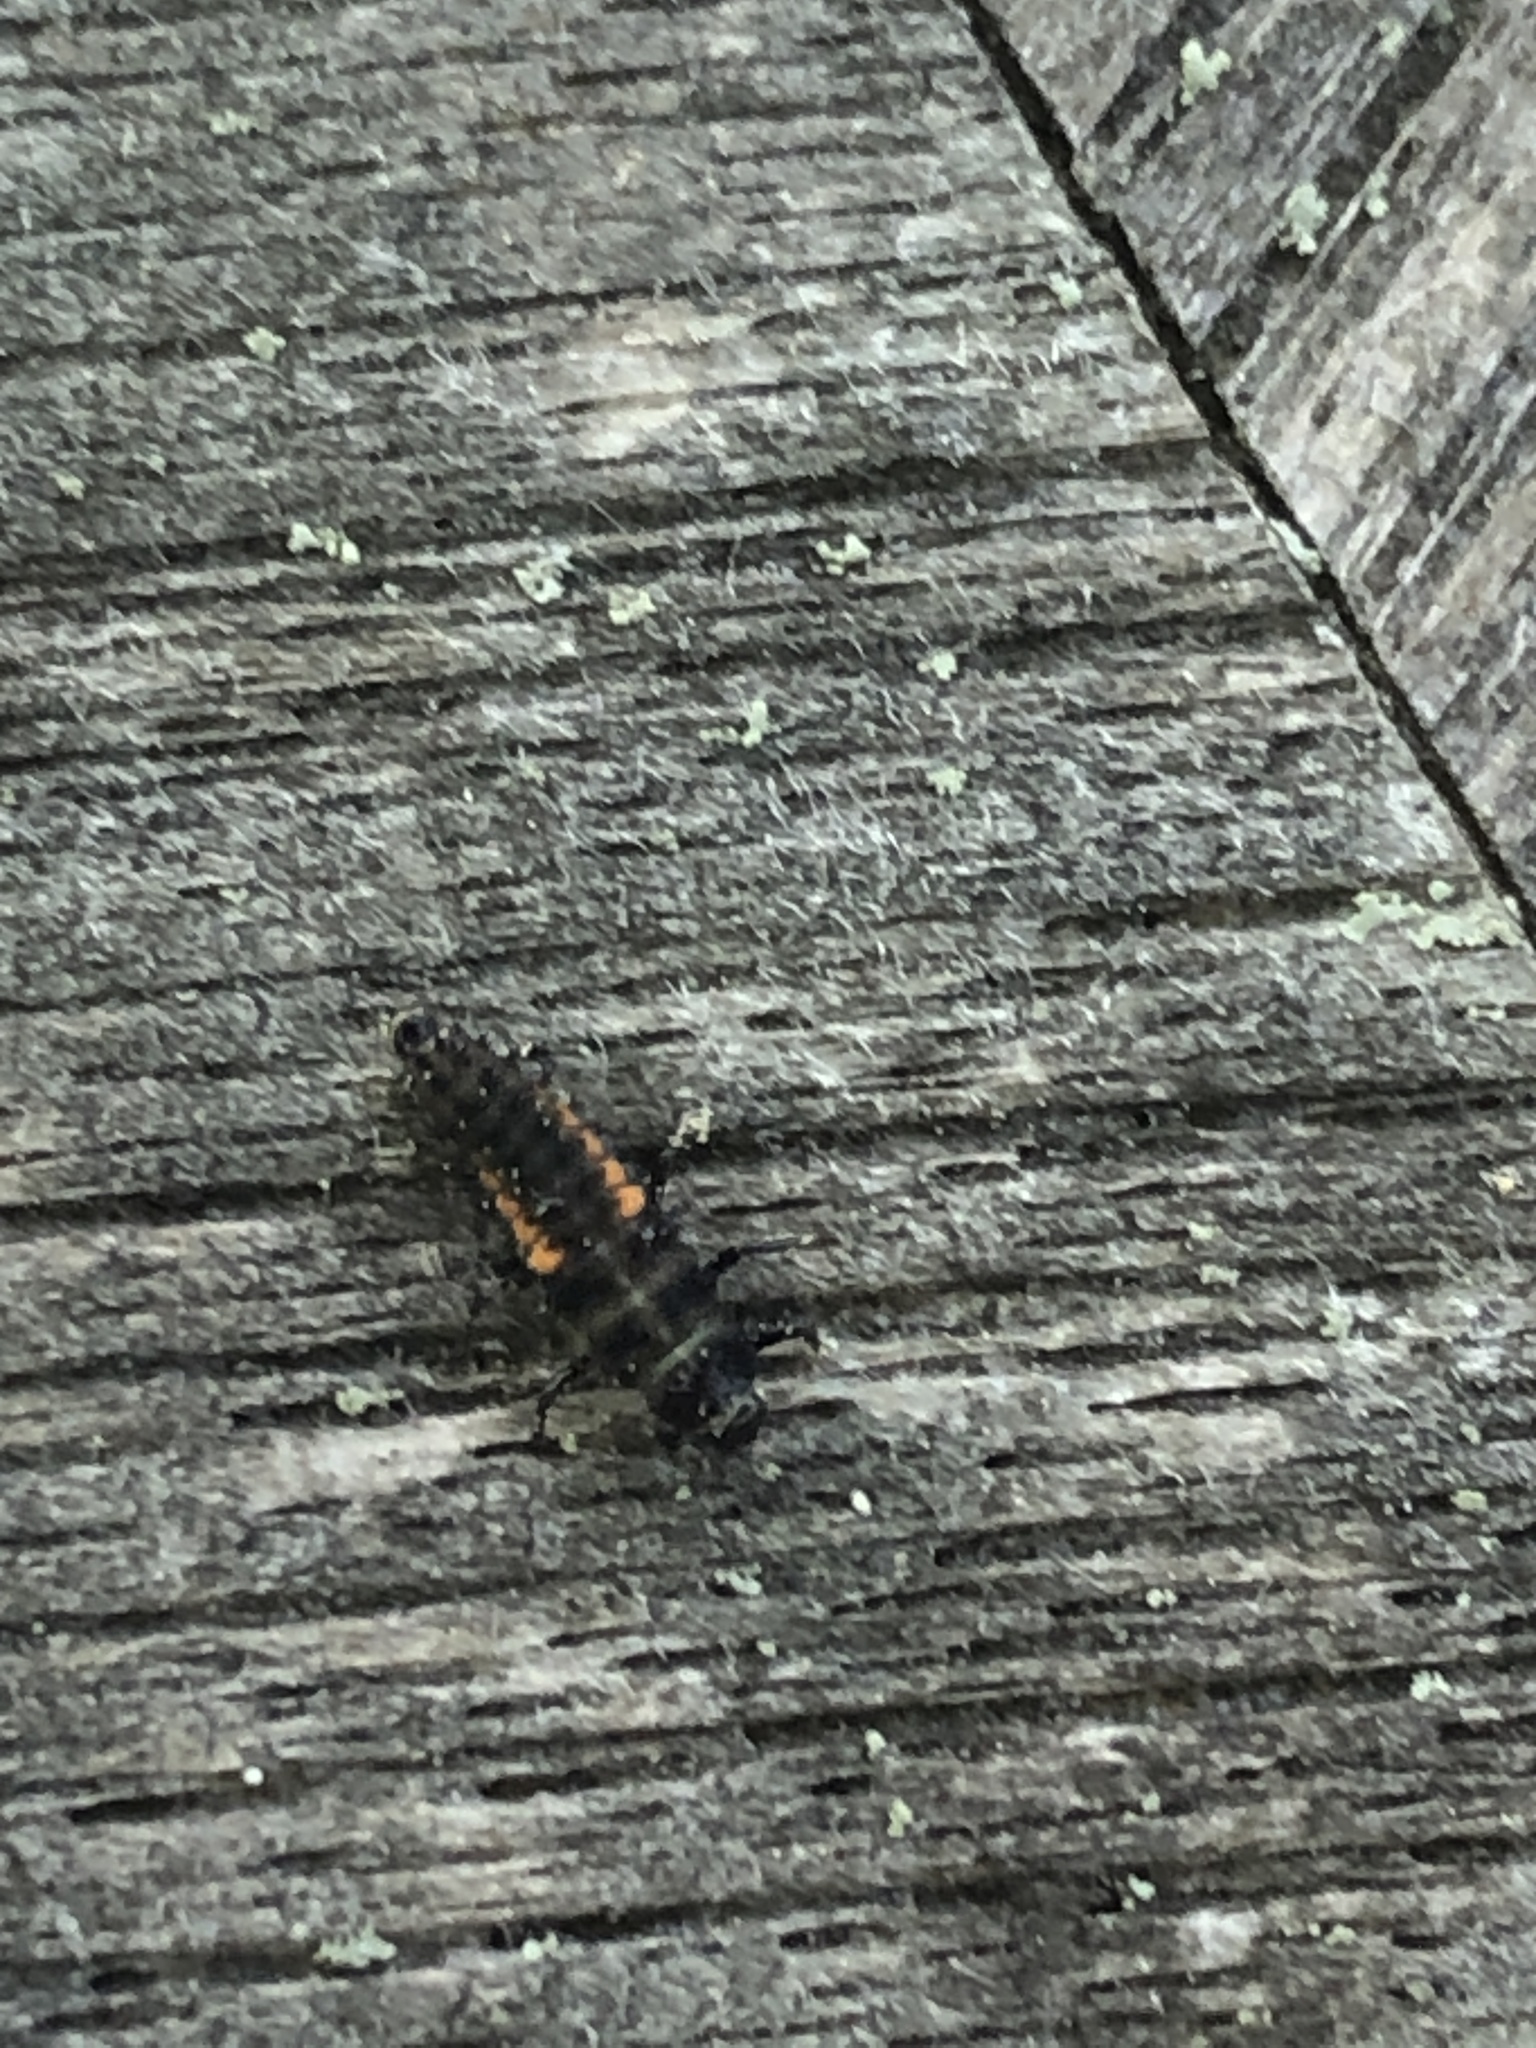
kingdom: Animalia
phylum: Arthropoda
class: Insecta
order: Coleoptera
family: Coccinellidae
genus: Harmonia
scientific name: Harmonia axyridis
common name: Harlequin ladybird
